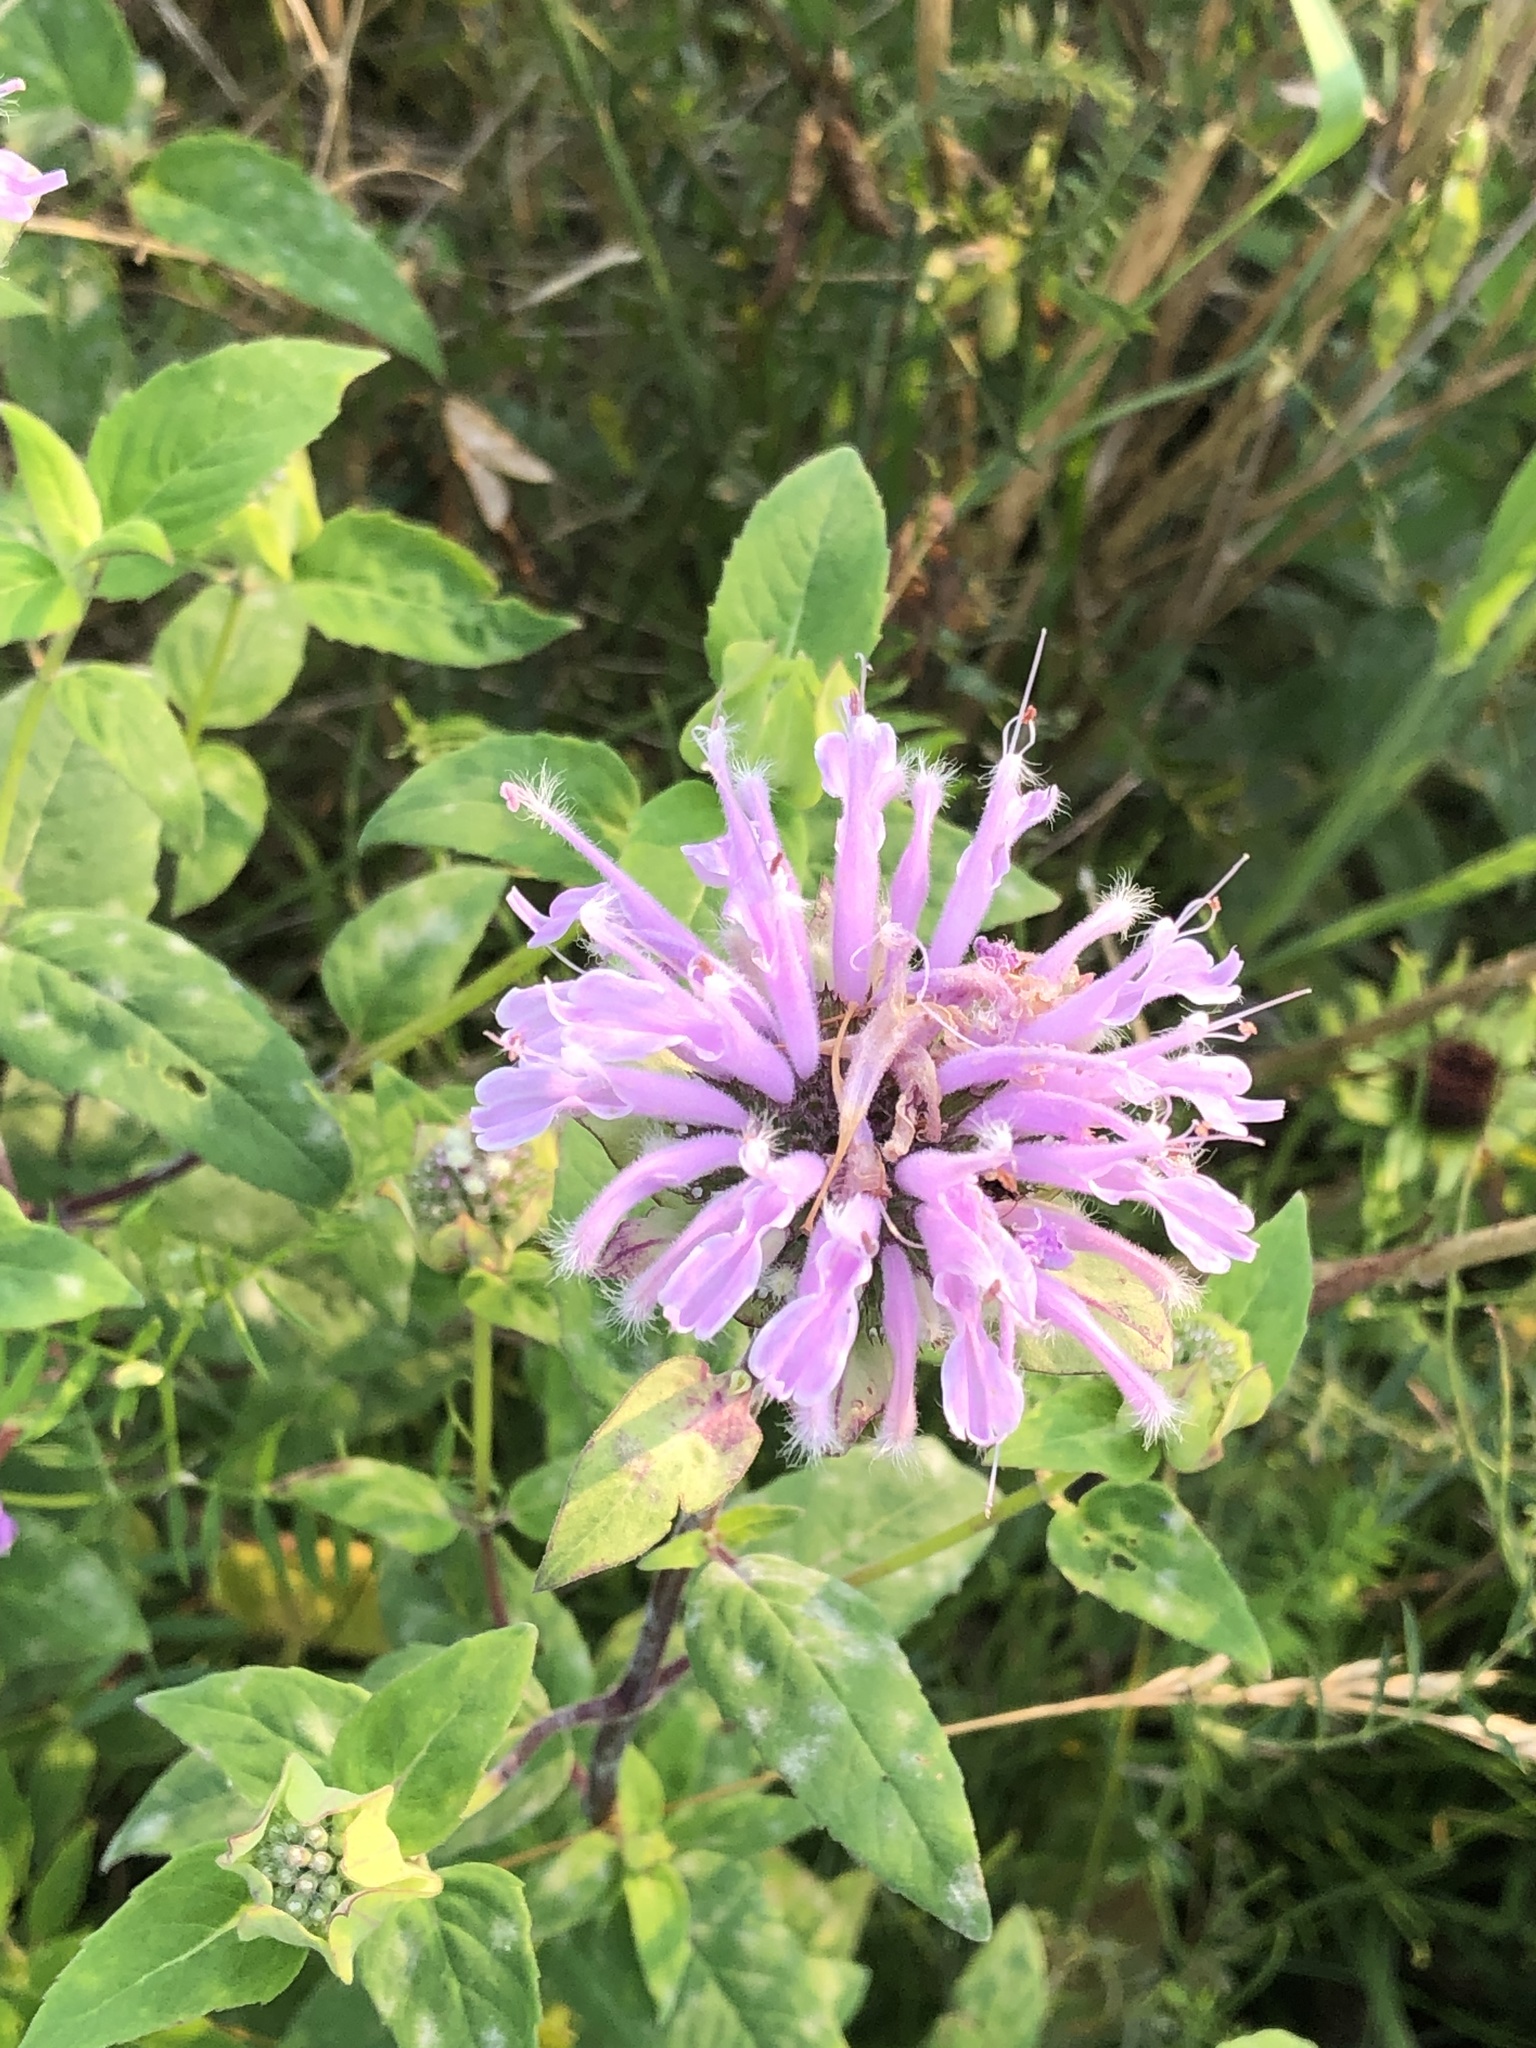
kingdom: Plantae
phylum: Tracheophyta
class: Magnoliopsida
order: Lamiales
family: Lamiaceae
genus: Monarda
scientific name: Monarda fistulosa
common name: Purple beebalm
